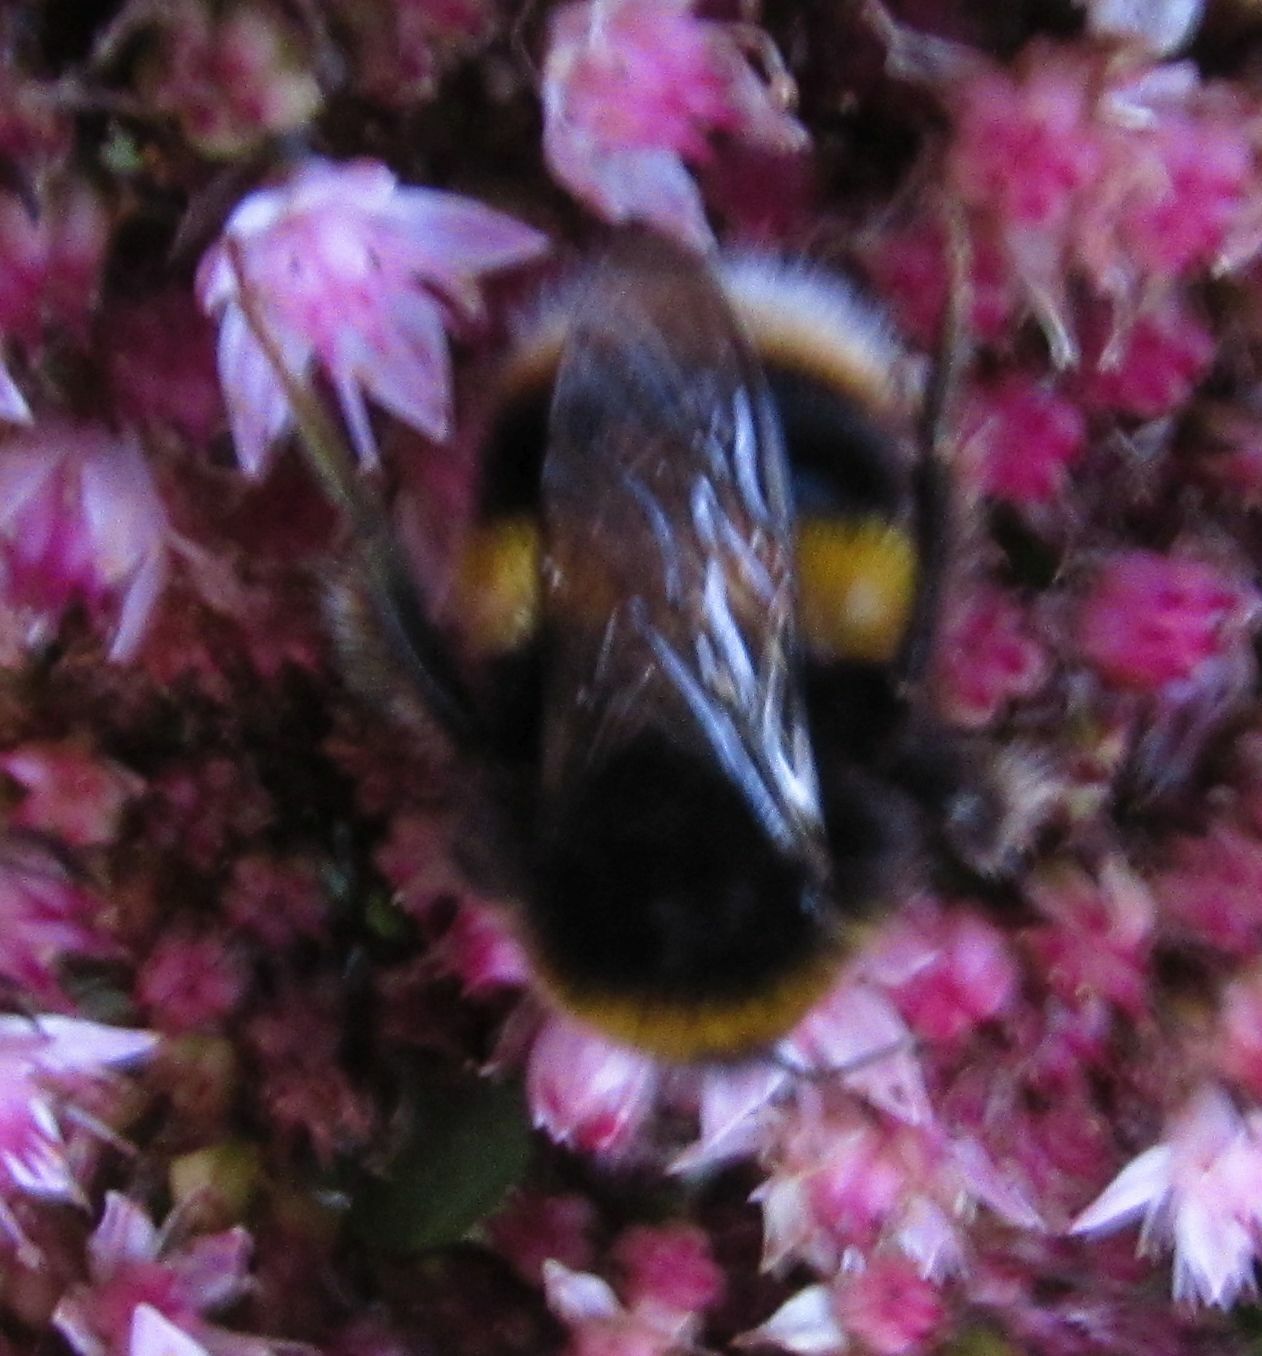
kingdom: Animalia
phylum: Arthropoda
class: Insecta
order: Hymenoptera
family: Apidae
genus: Bombus
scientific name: Bombus terrestris
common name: Buff-tailed bumblebee
